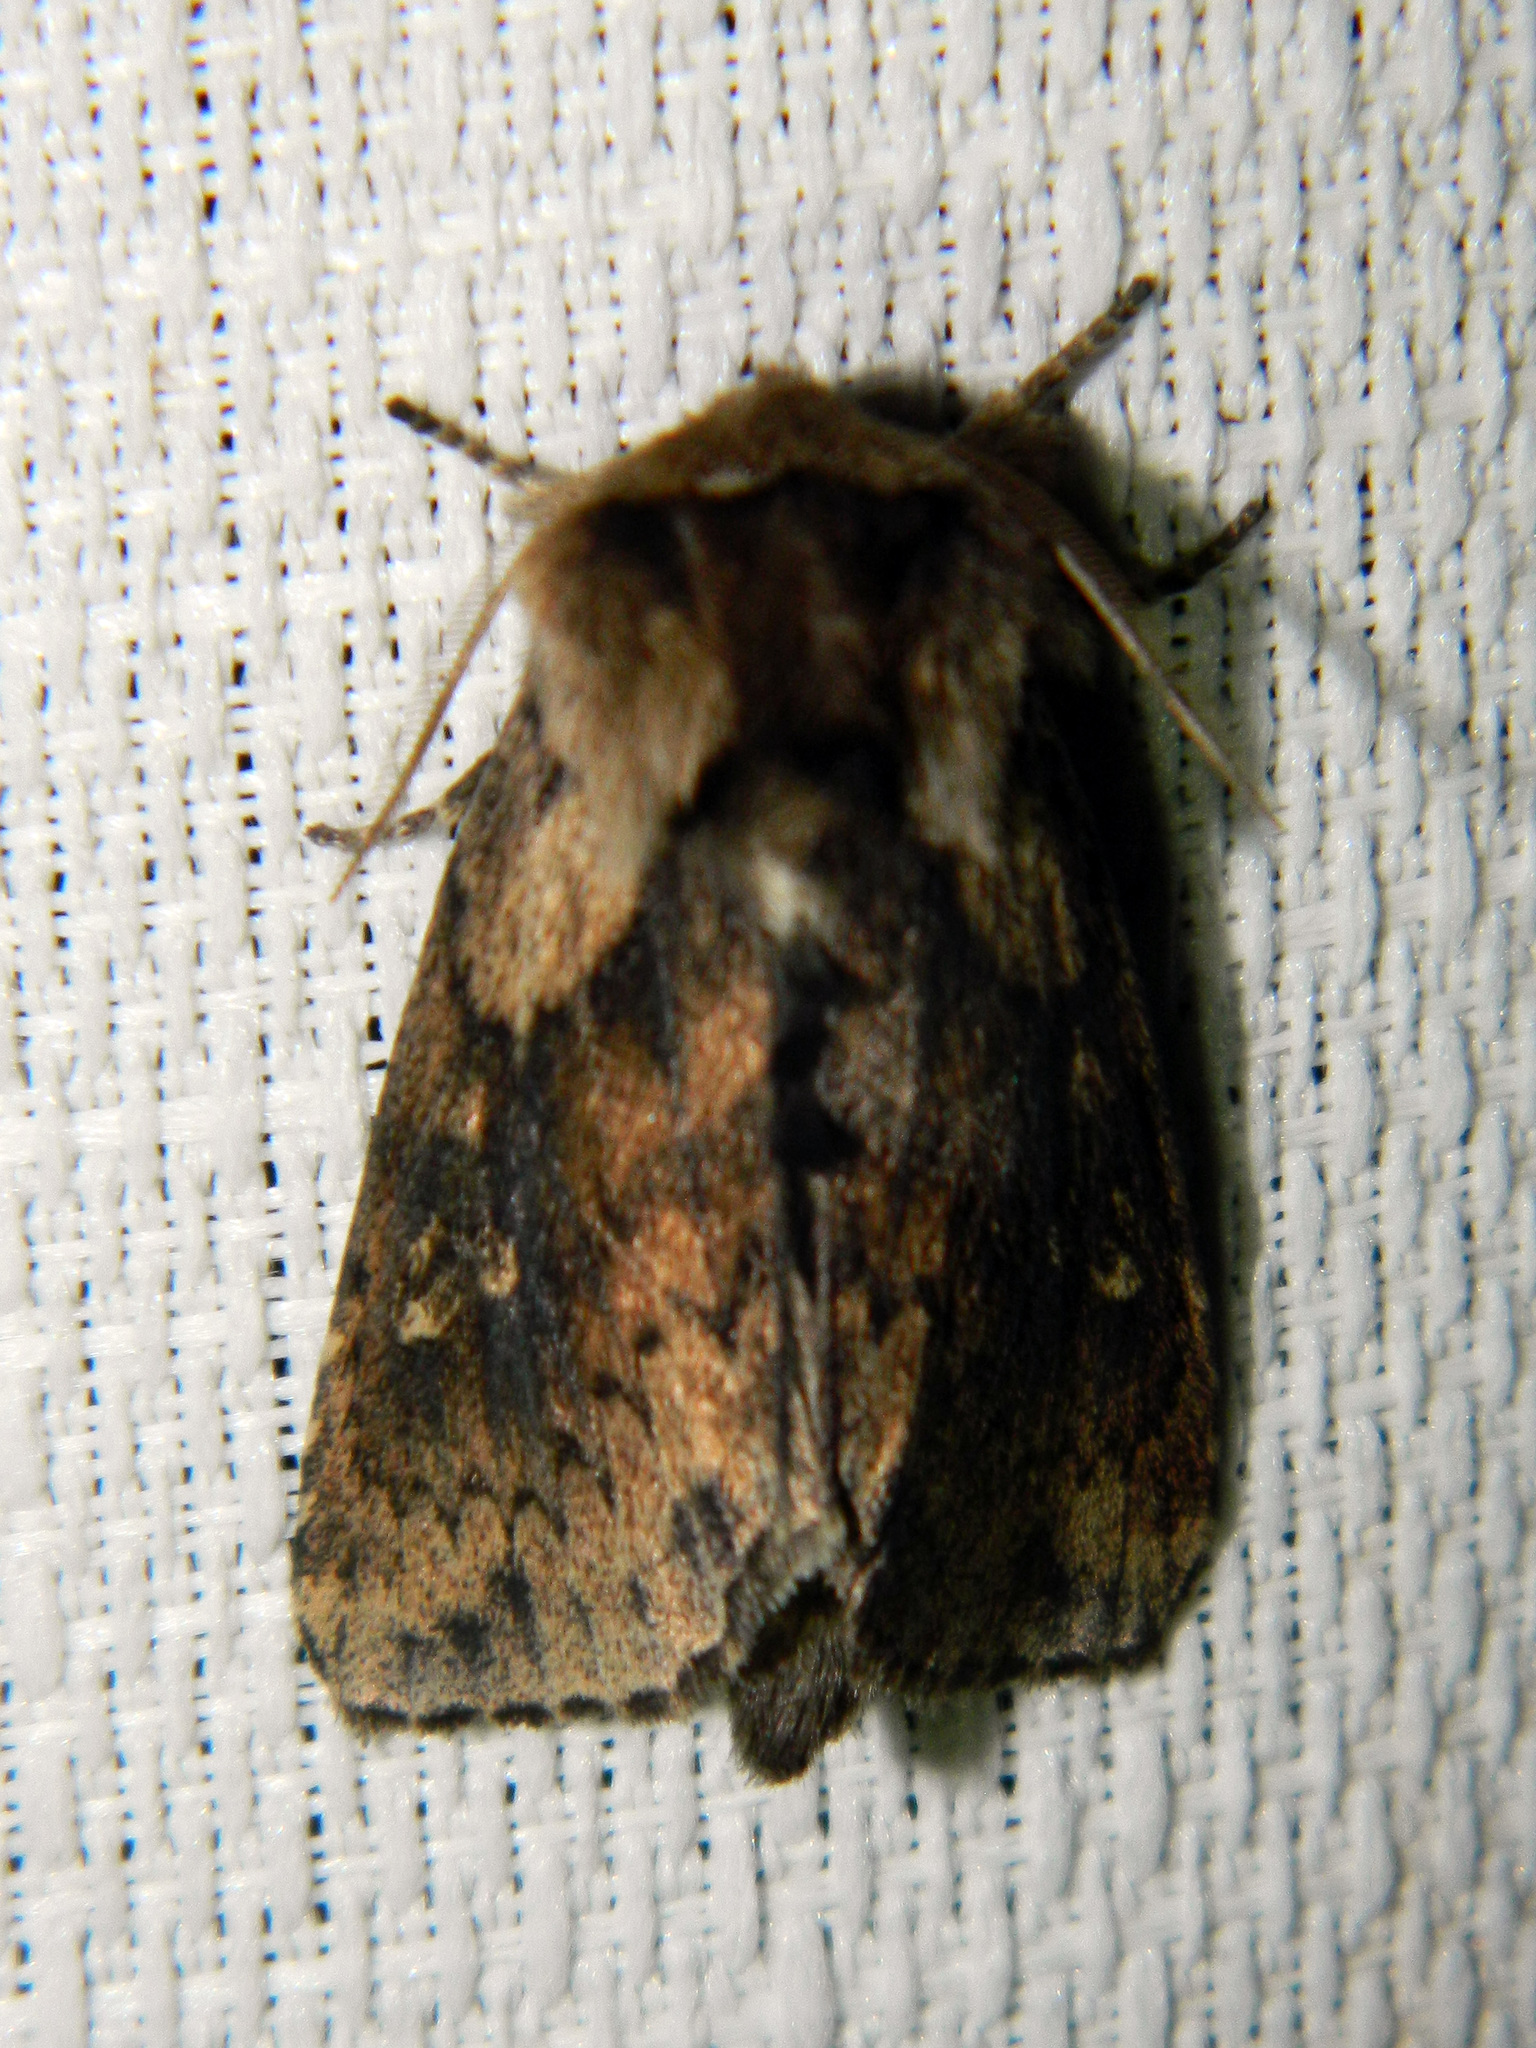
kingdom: Animalia
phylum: Arthropoda
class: Insecta
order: Lepidoptera
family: Noctuidae
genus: Bellura
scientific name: Bellura vulnifica
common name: Black-tailed diver moth
